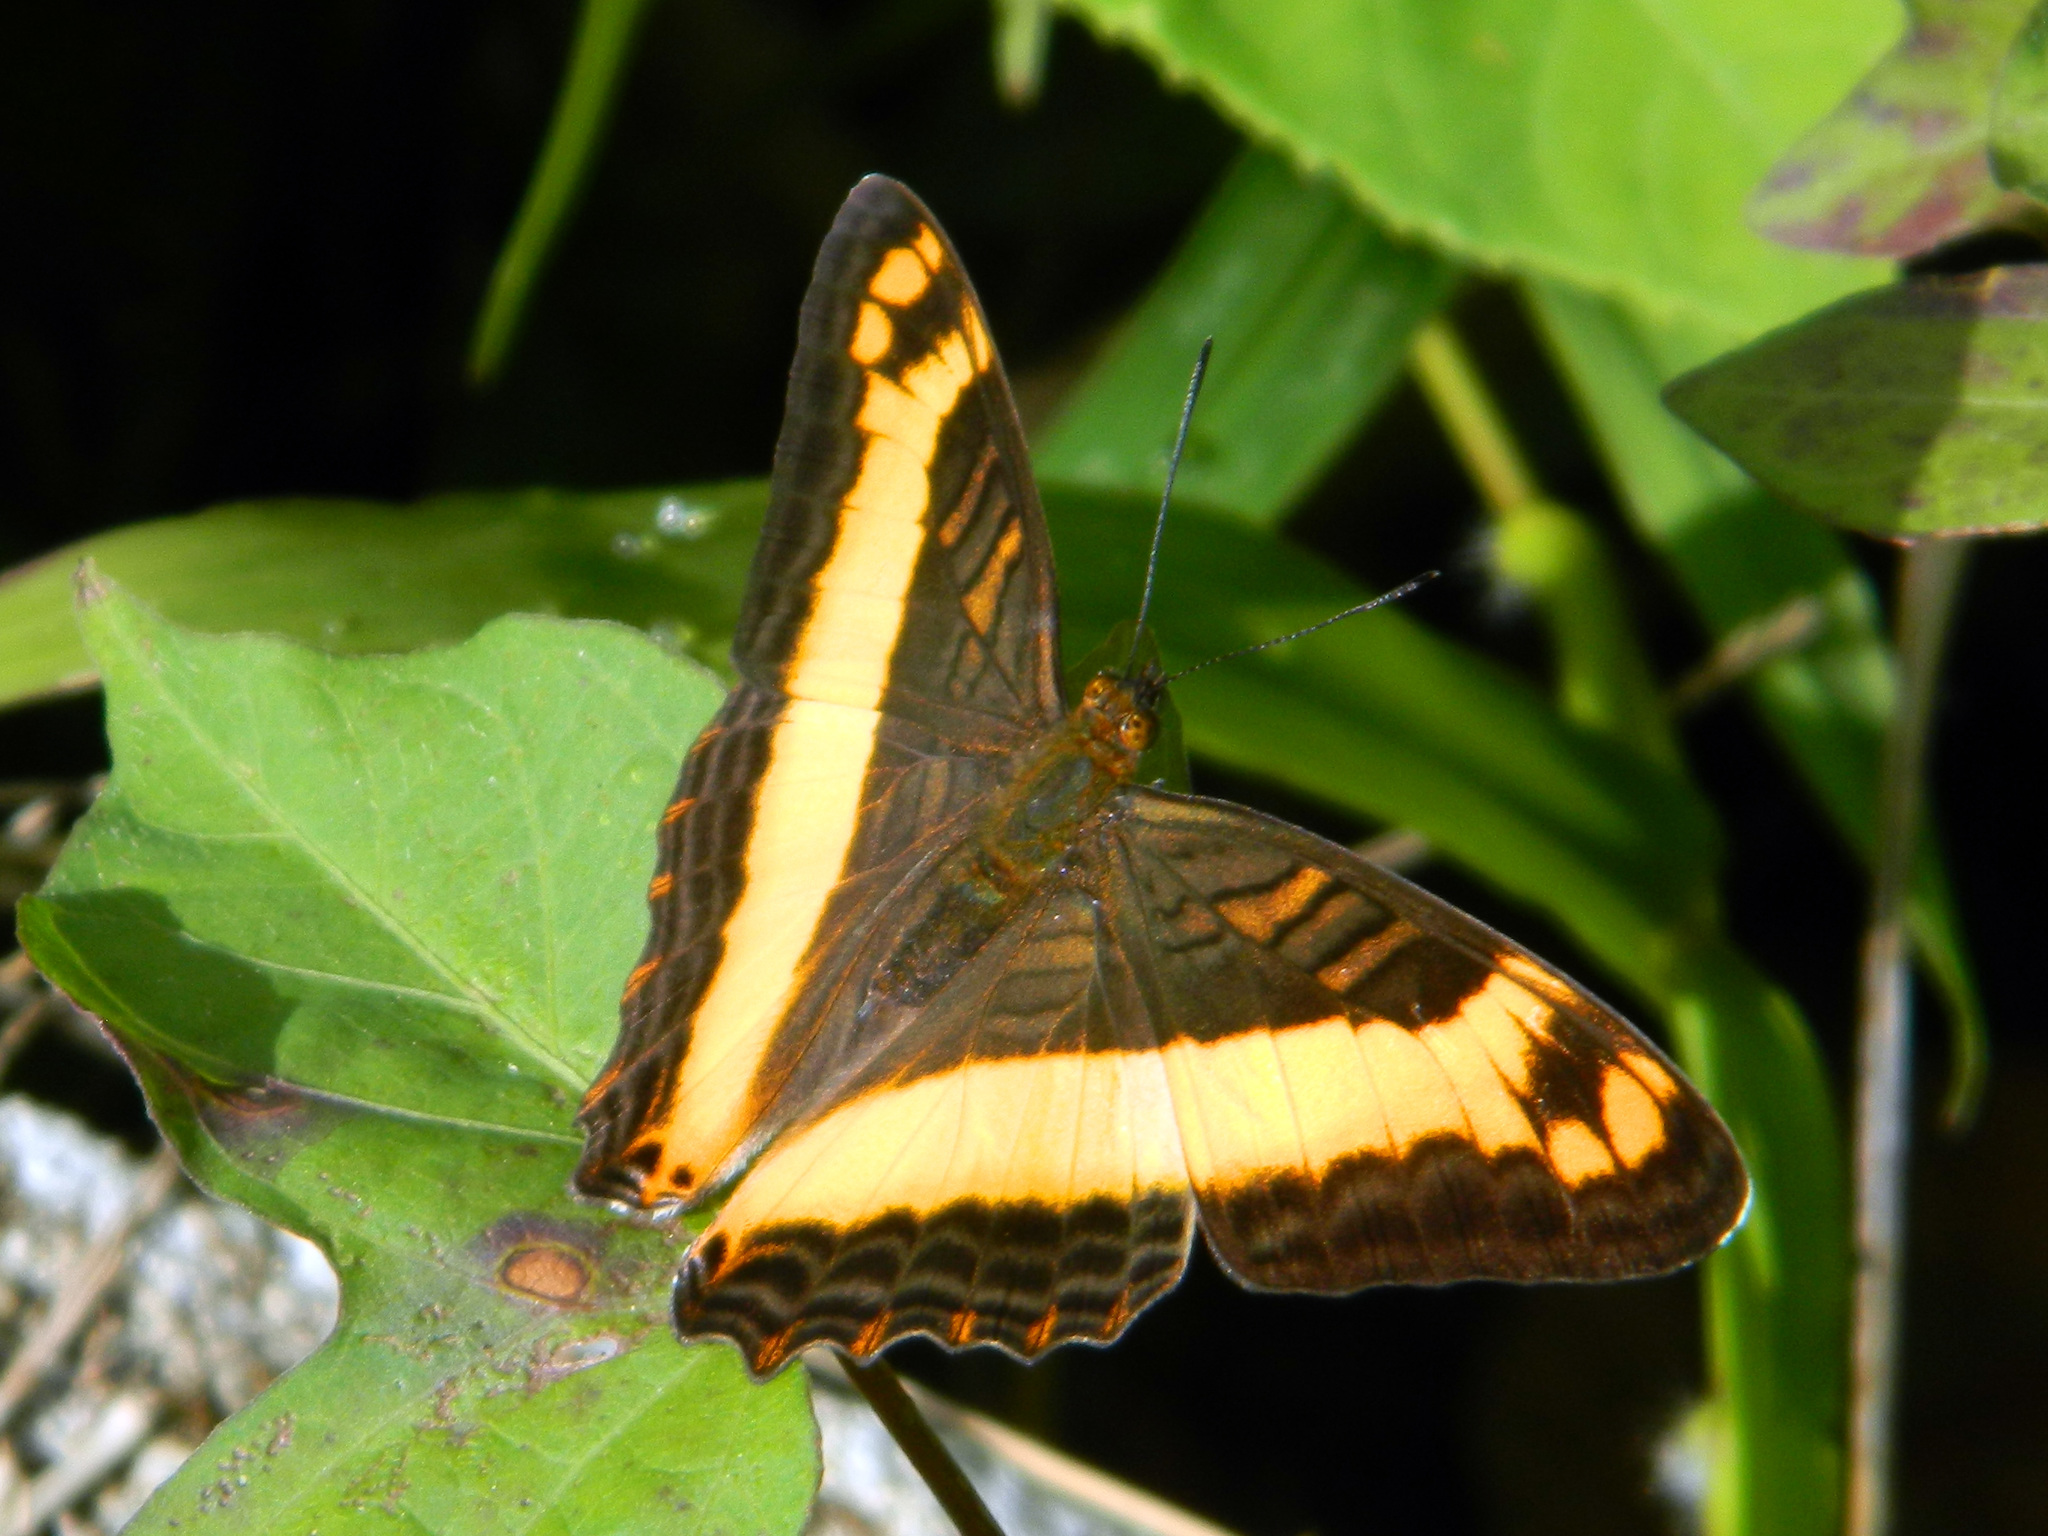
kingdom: Animalia
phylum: Arthropoda
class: Insecta
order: Lepidoptera
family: Nymphalidae
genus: Limenitis
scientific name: Limenitis
